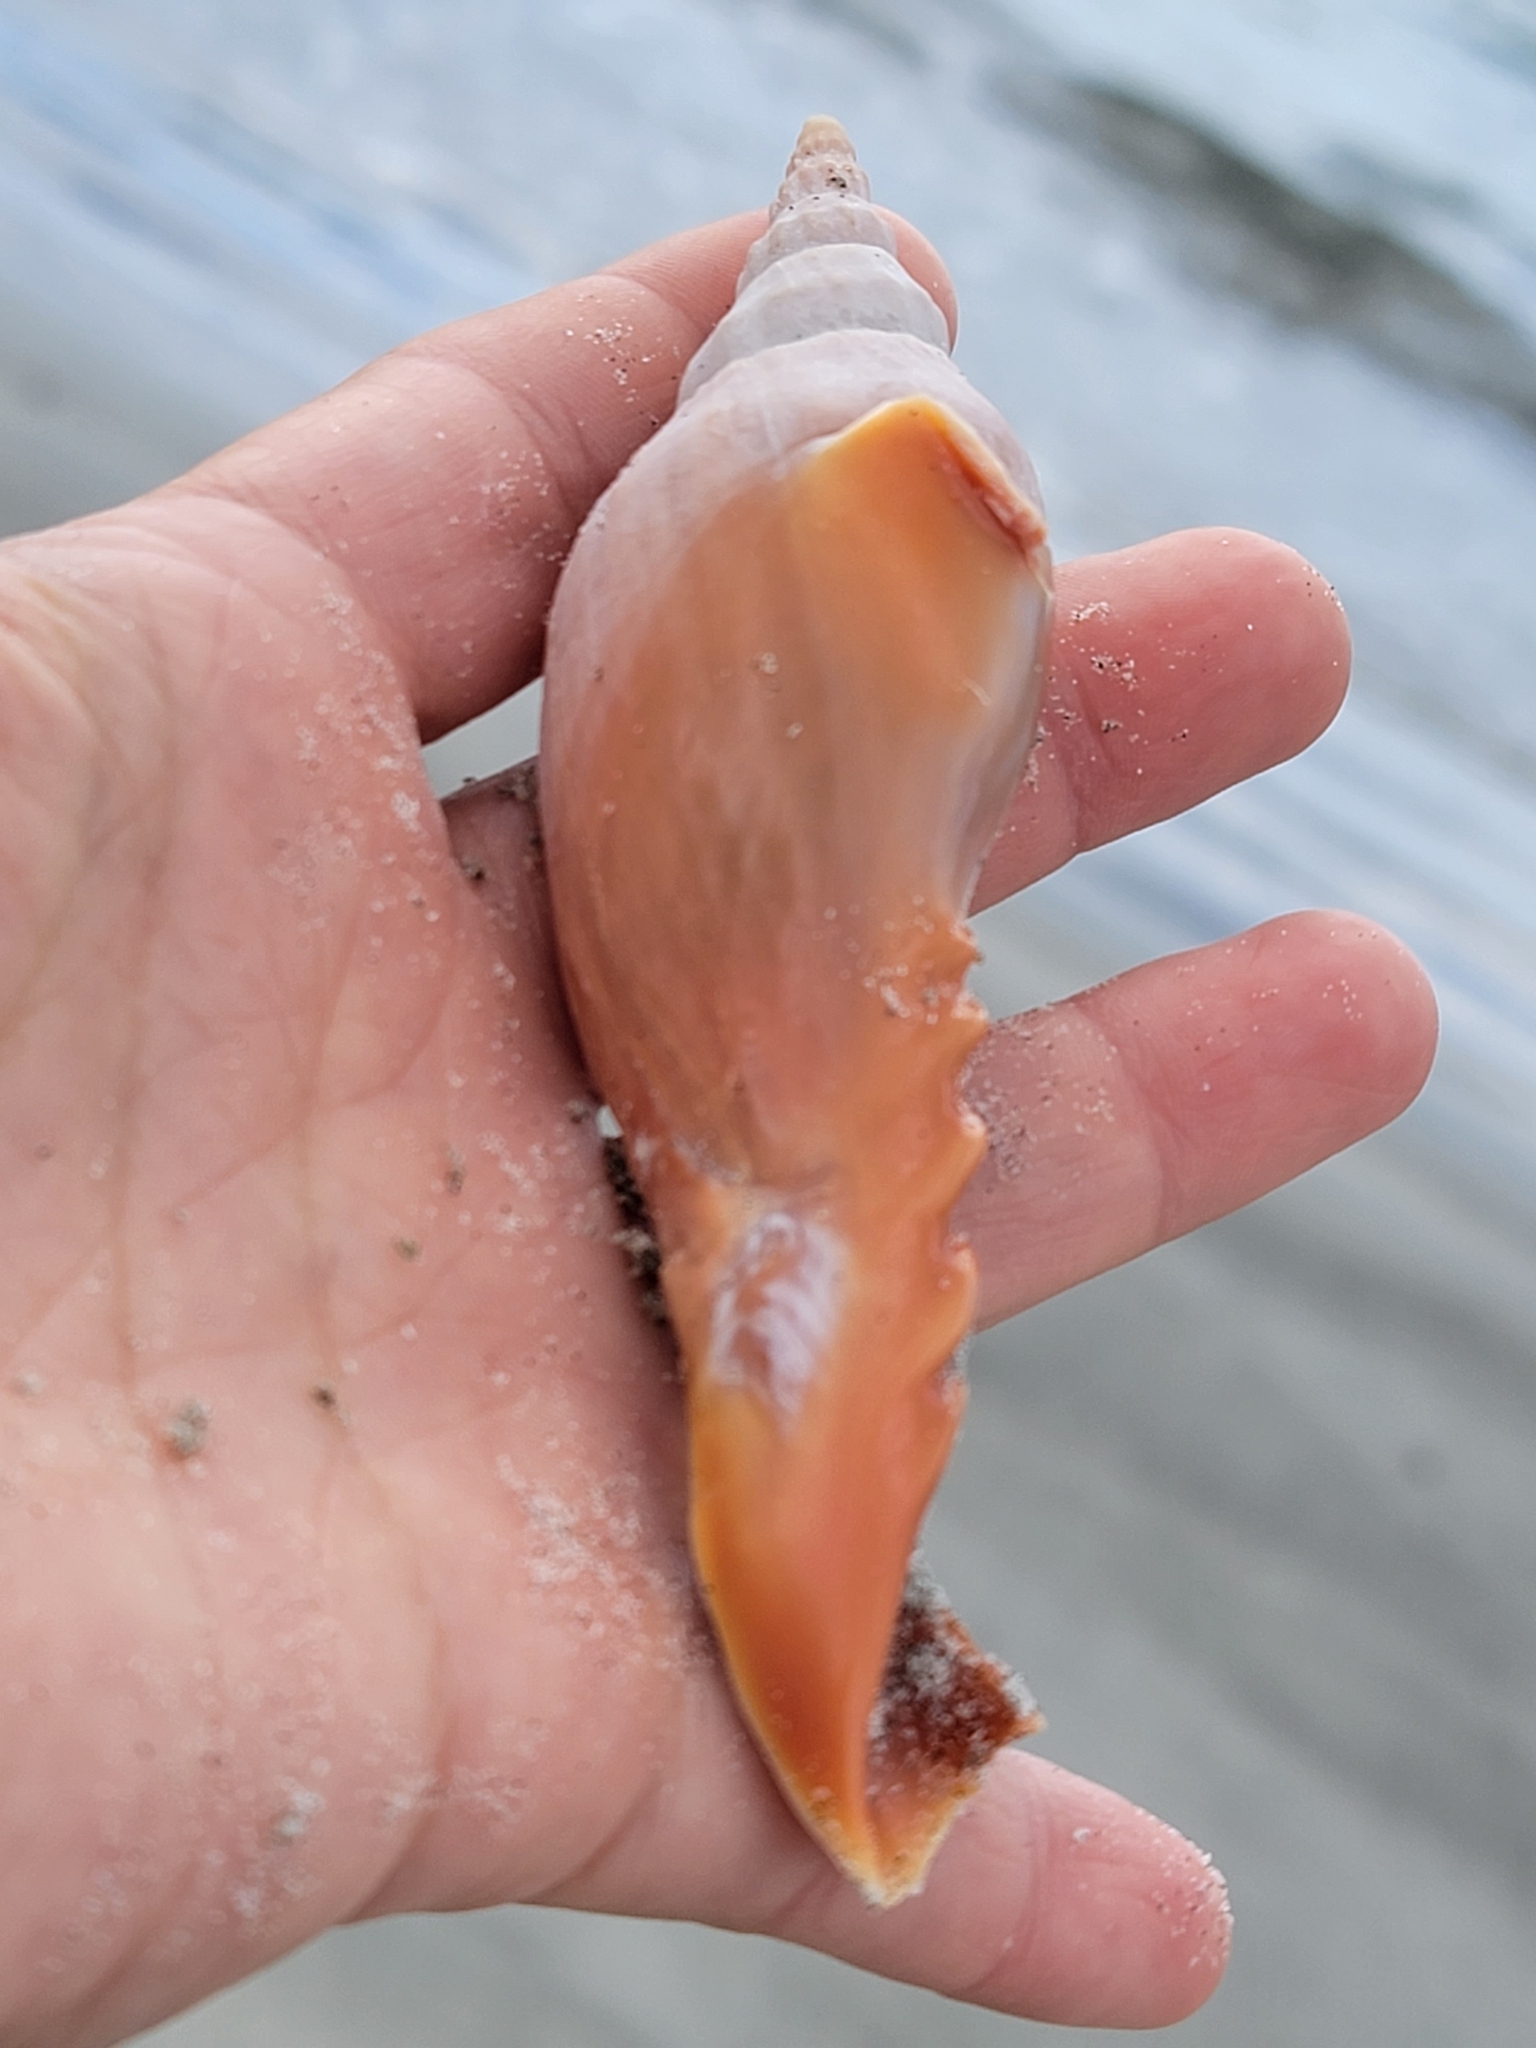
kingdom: Animalia
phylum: Mollusca
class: Gastropoda
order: Neogastropoda
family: Volutidae
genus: Alcithoe
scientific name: Alcithoe arabica
